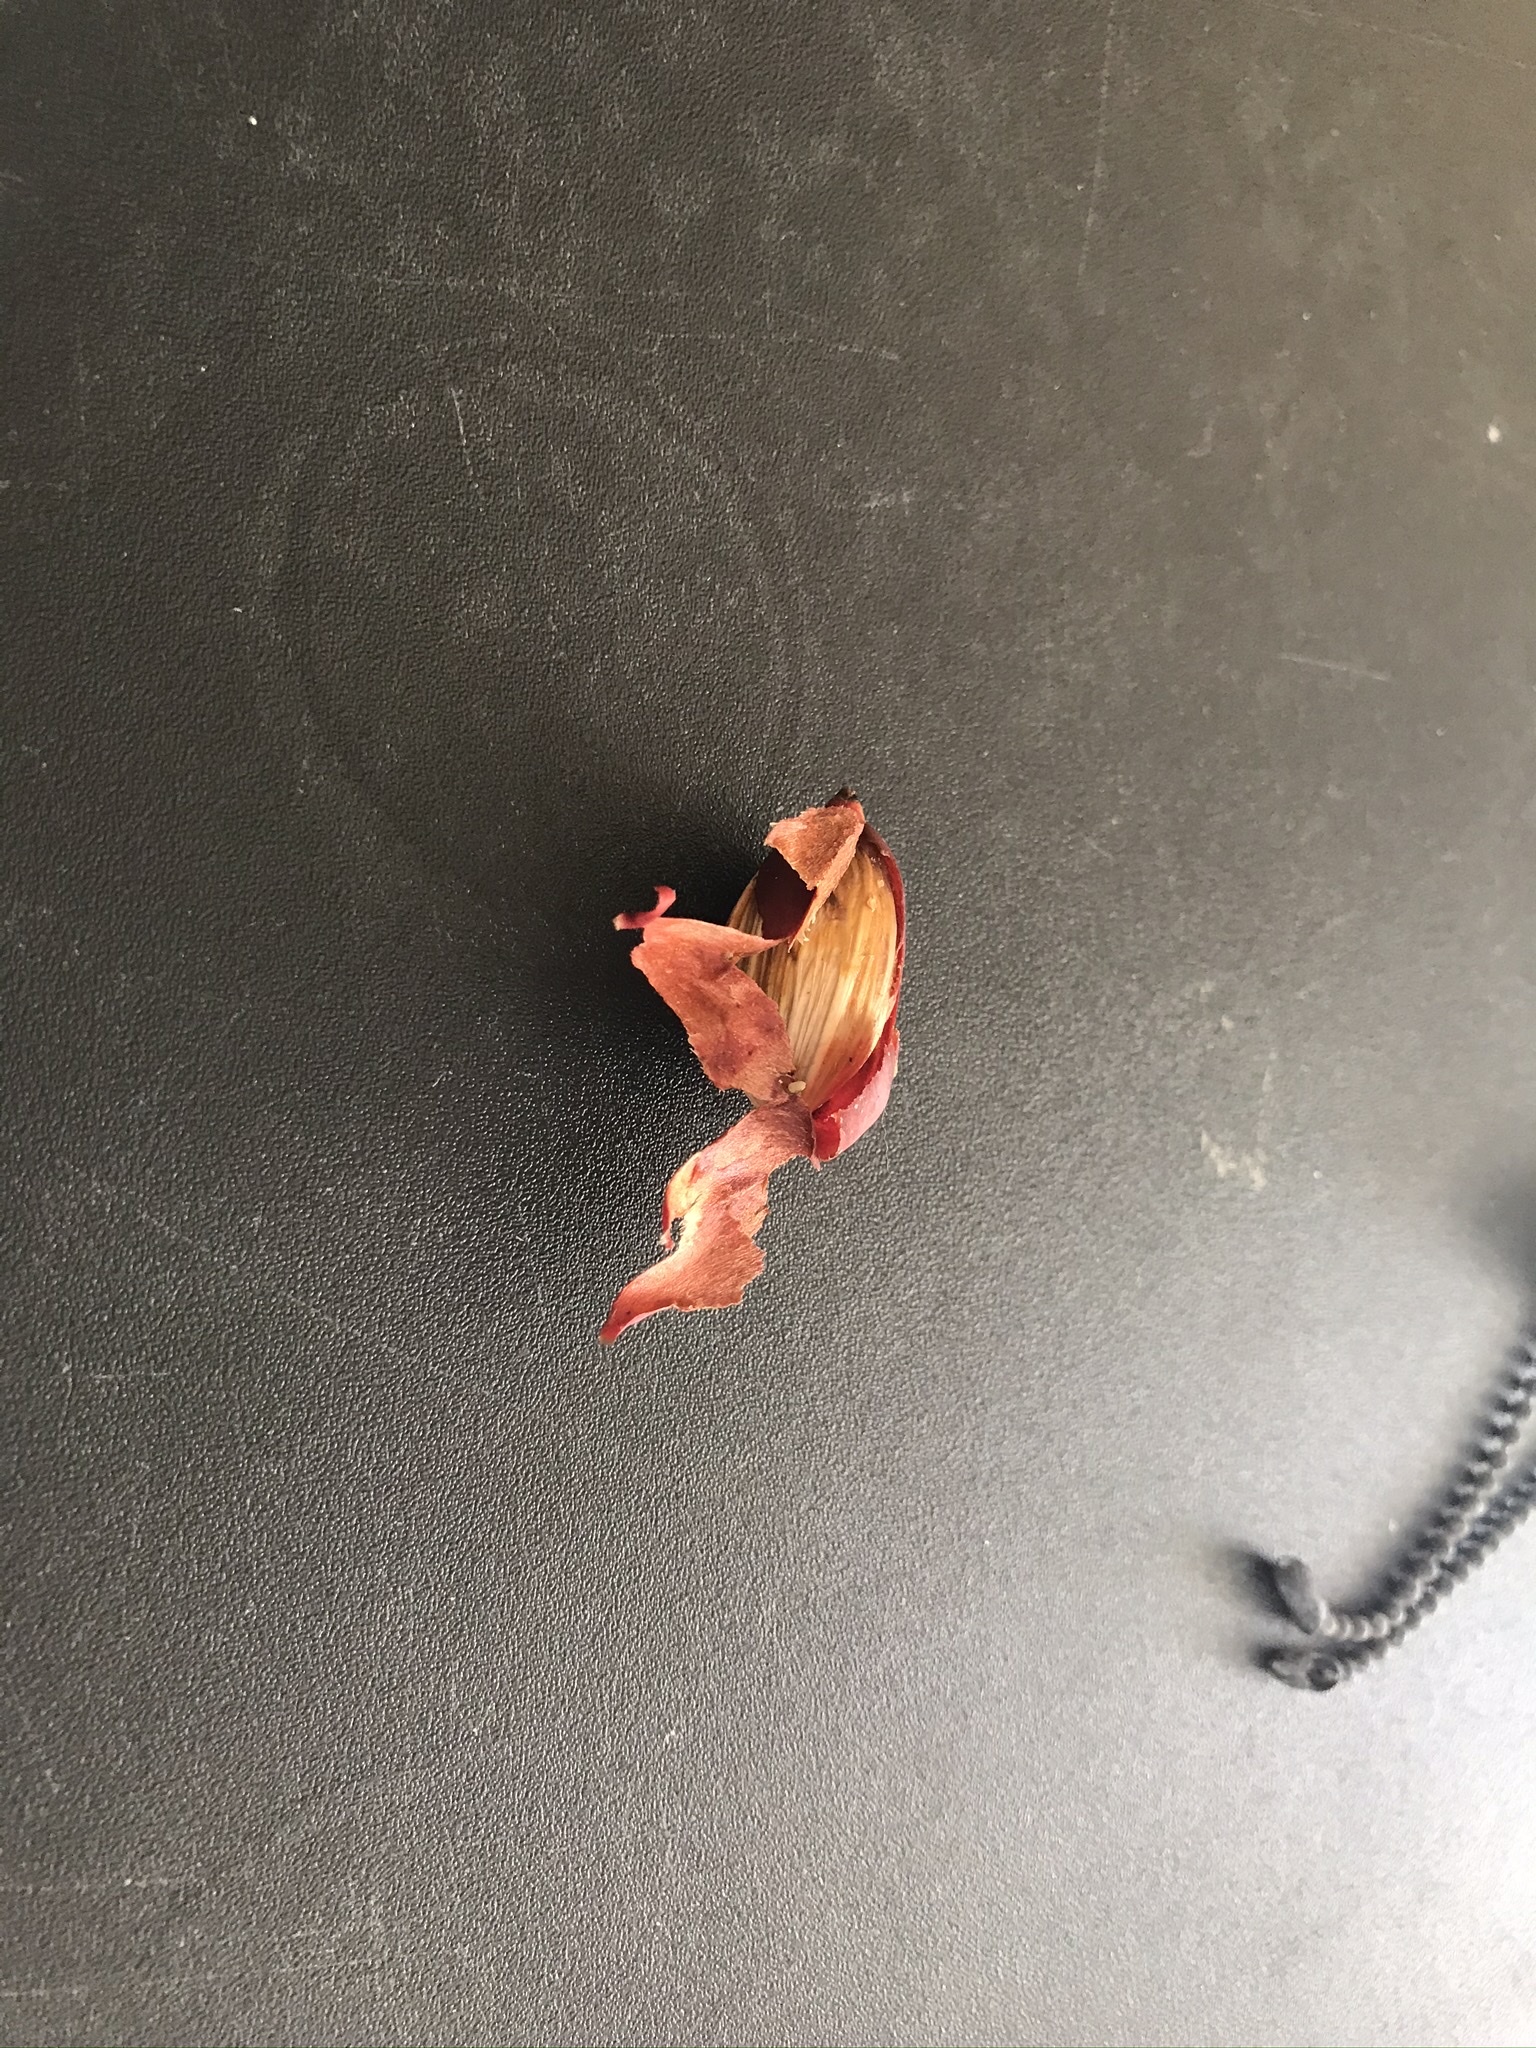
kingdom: Plantae
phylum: Tracheophyta
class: Liliopsida
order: Arecales
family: Arecaceae
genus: Adonidia
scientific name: Adonidia merrillii
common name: Manila palm
